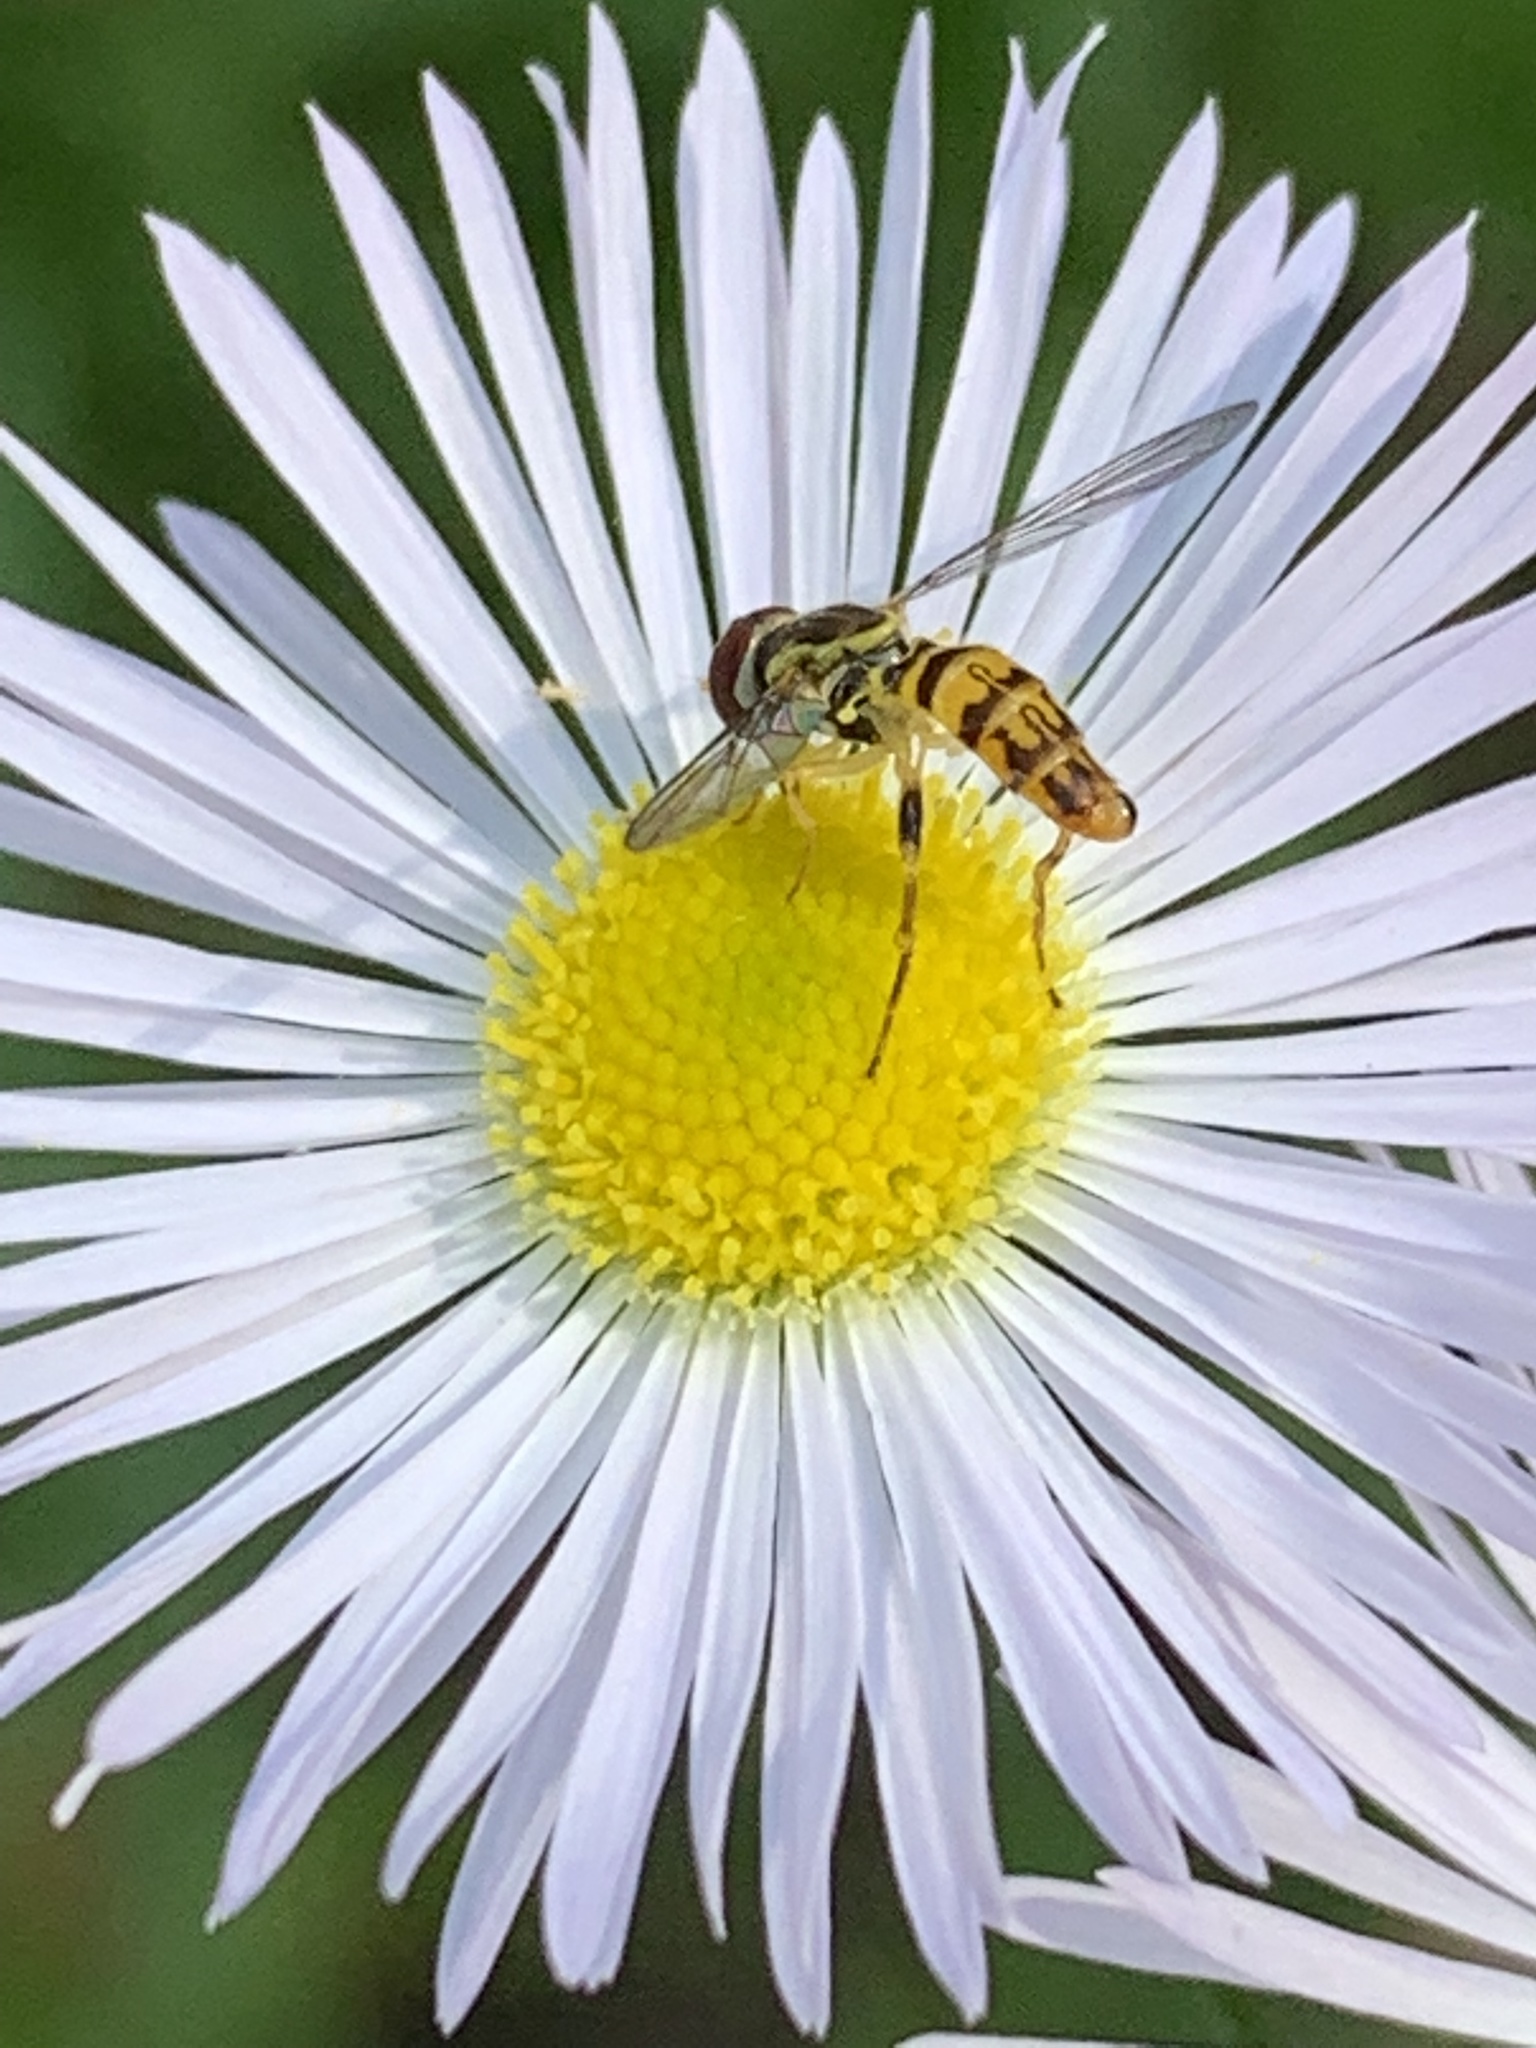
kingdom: Animalia
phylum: Arthropoda
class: Insecta
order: Diptera
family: Syrphidae
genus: Toxomerus
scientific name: Toxomerus geminatus
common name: Eastern calligrapher
